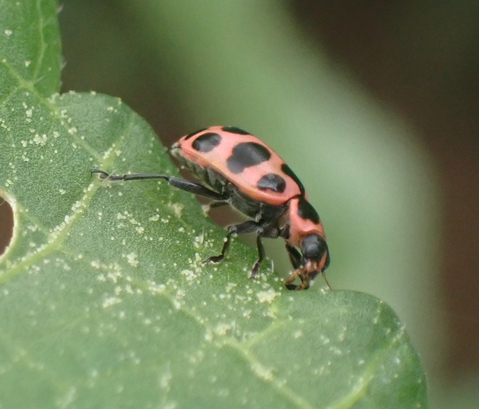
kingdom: Animalia
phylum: Arthropoda
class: Insecta
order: Coleoptera
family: Coccinellidae
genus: Coleomegilla
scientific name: Coleomegilla maculata
